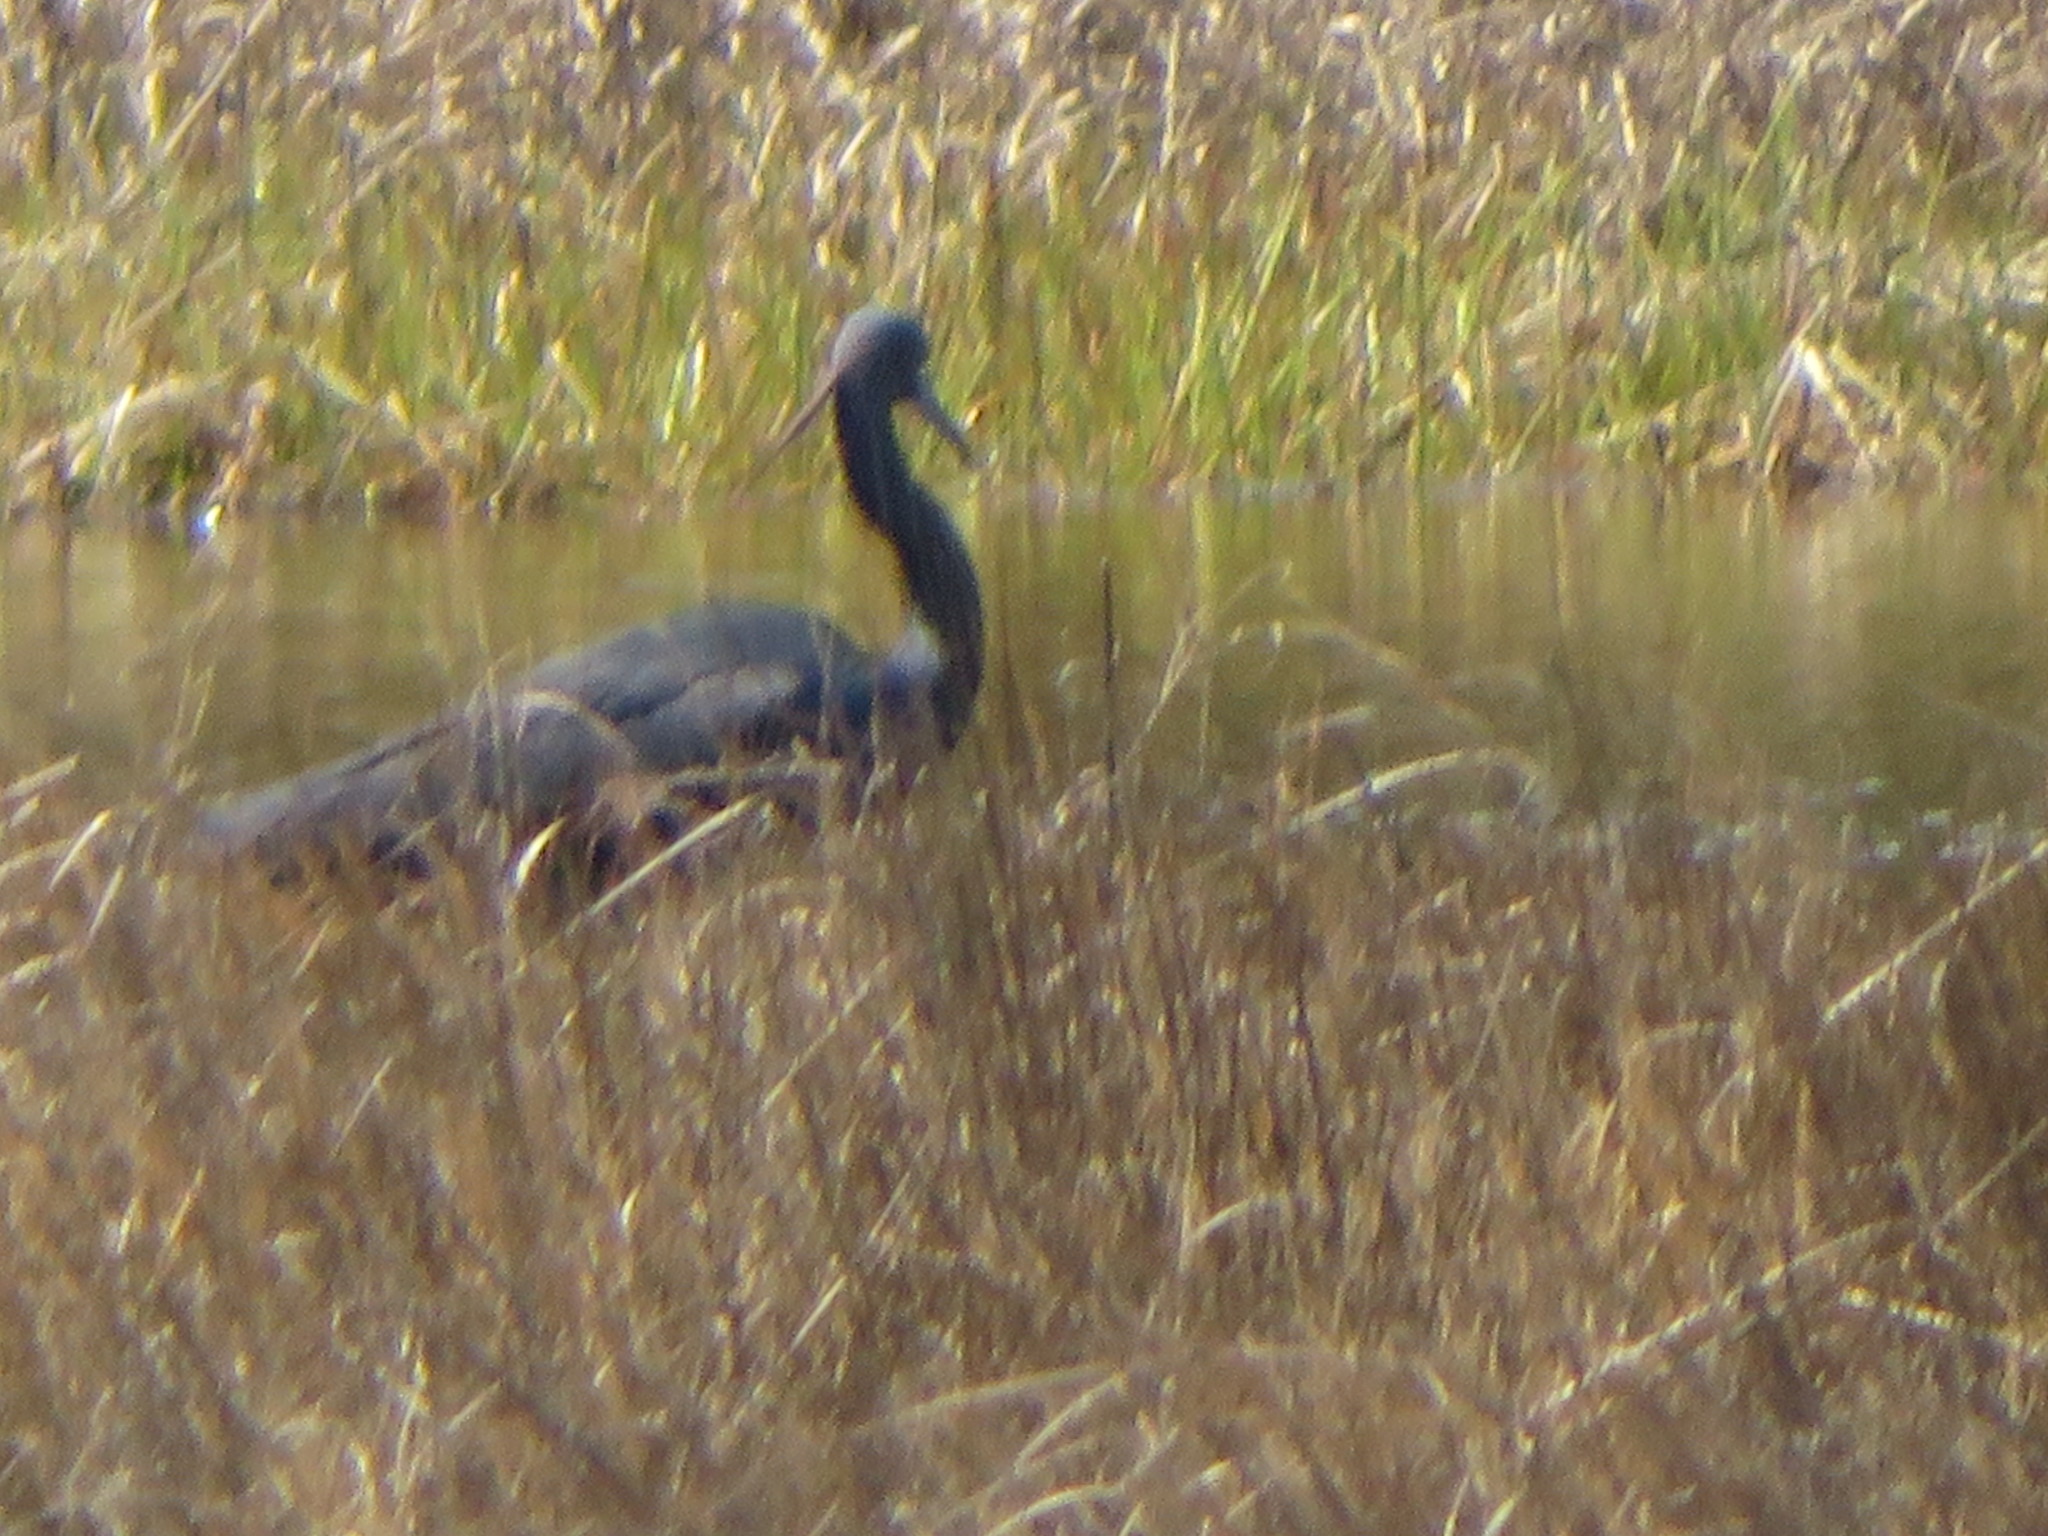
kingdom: Animalia
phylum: Chordata
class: Aves
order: Pelecaniformes
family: Ardeidae
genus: Egretta
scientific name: Egretta
